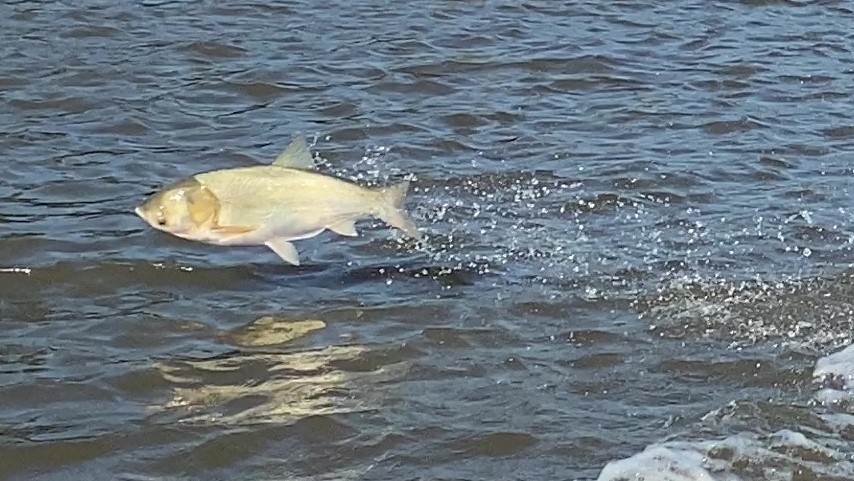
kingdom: Animalia
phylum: Chordata
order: Cypriniformes
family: Cyprinidae
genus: Hypophthalmichthys
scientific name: Hypophthalmichthys molitrix
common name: Silver carp
